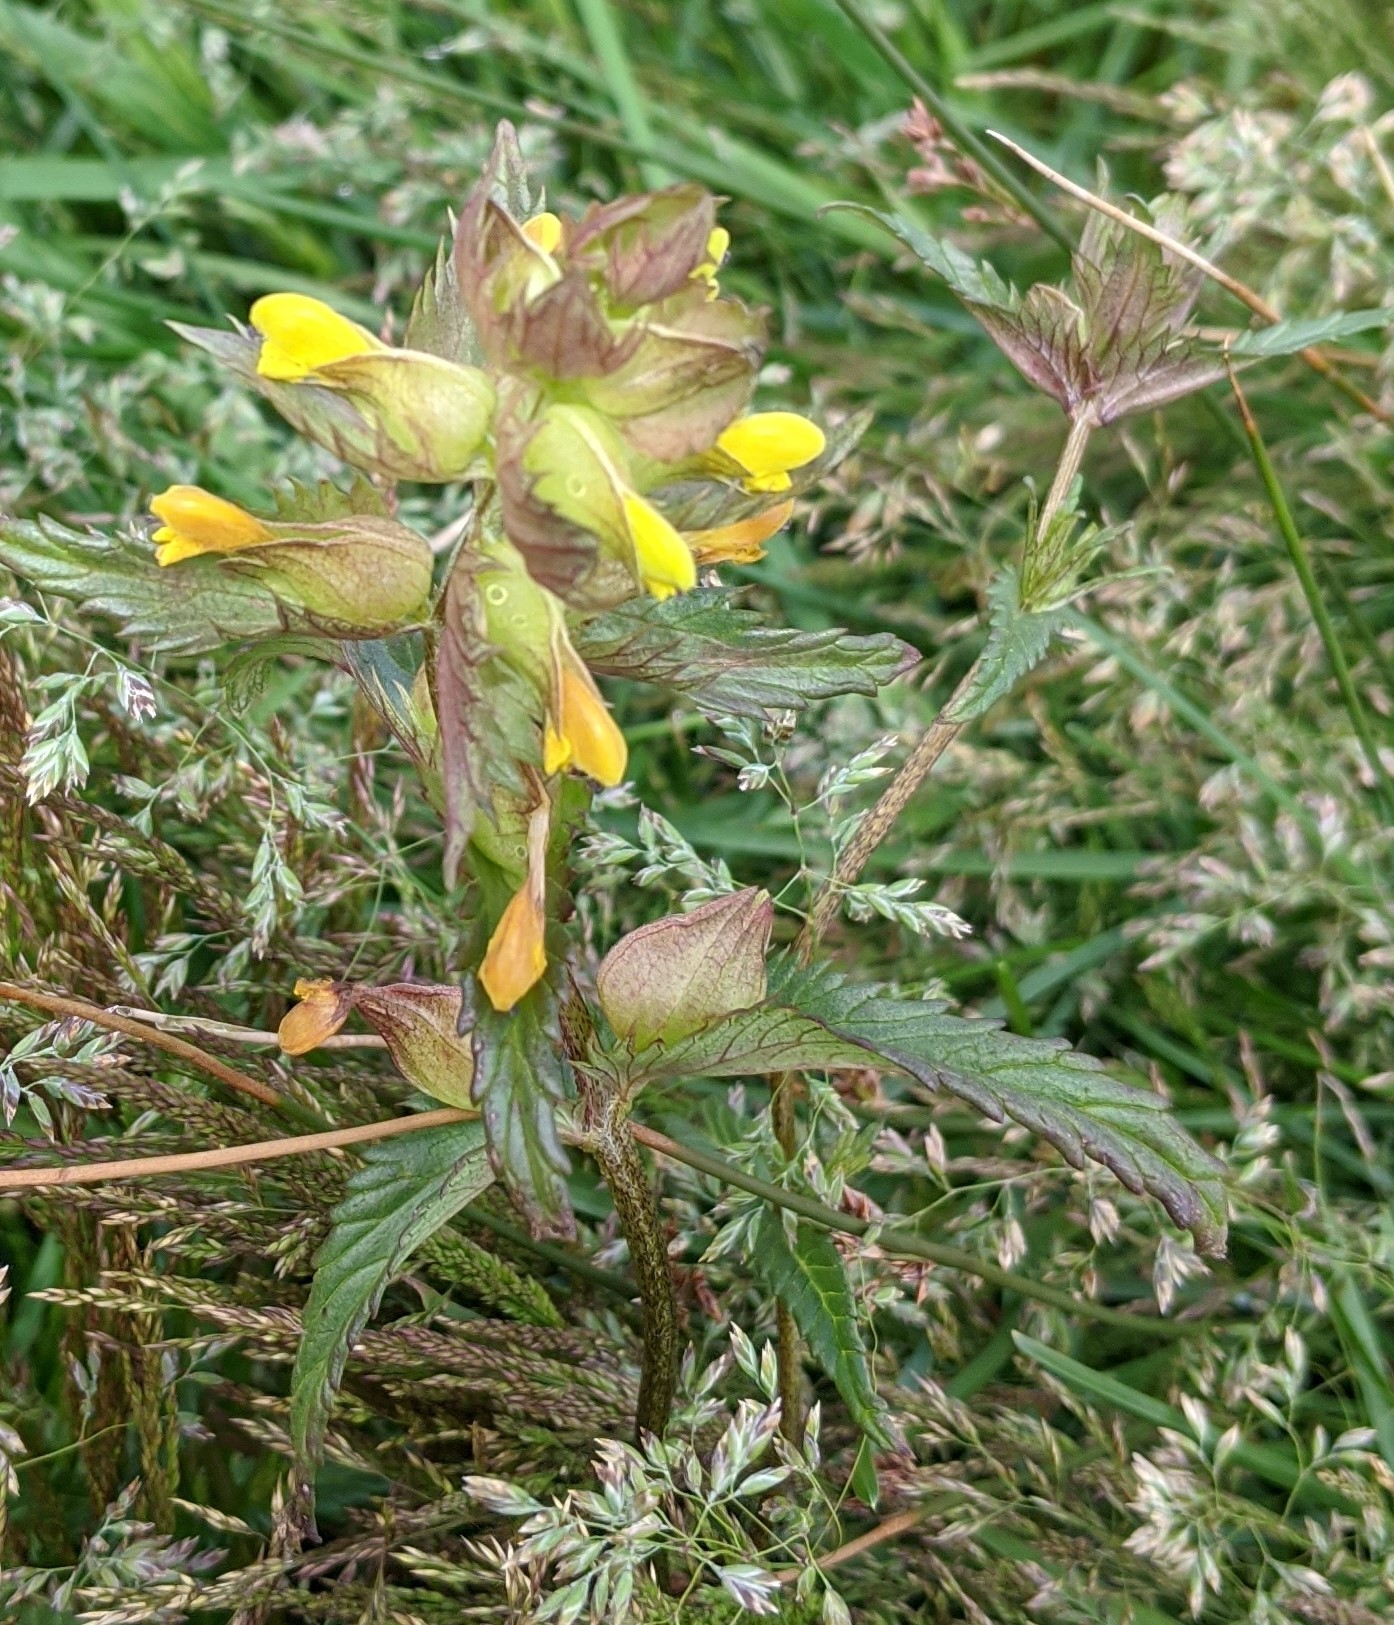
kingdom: Plantae
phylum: Tracheophyta
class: Magnoliopsida
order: Lamiales
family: Orobanchaceae
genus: Rhinanthus
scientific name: Rhinanthus minor
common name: Yellow-rattle
